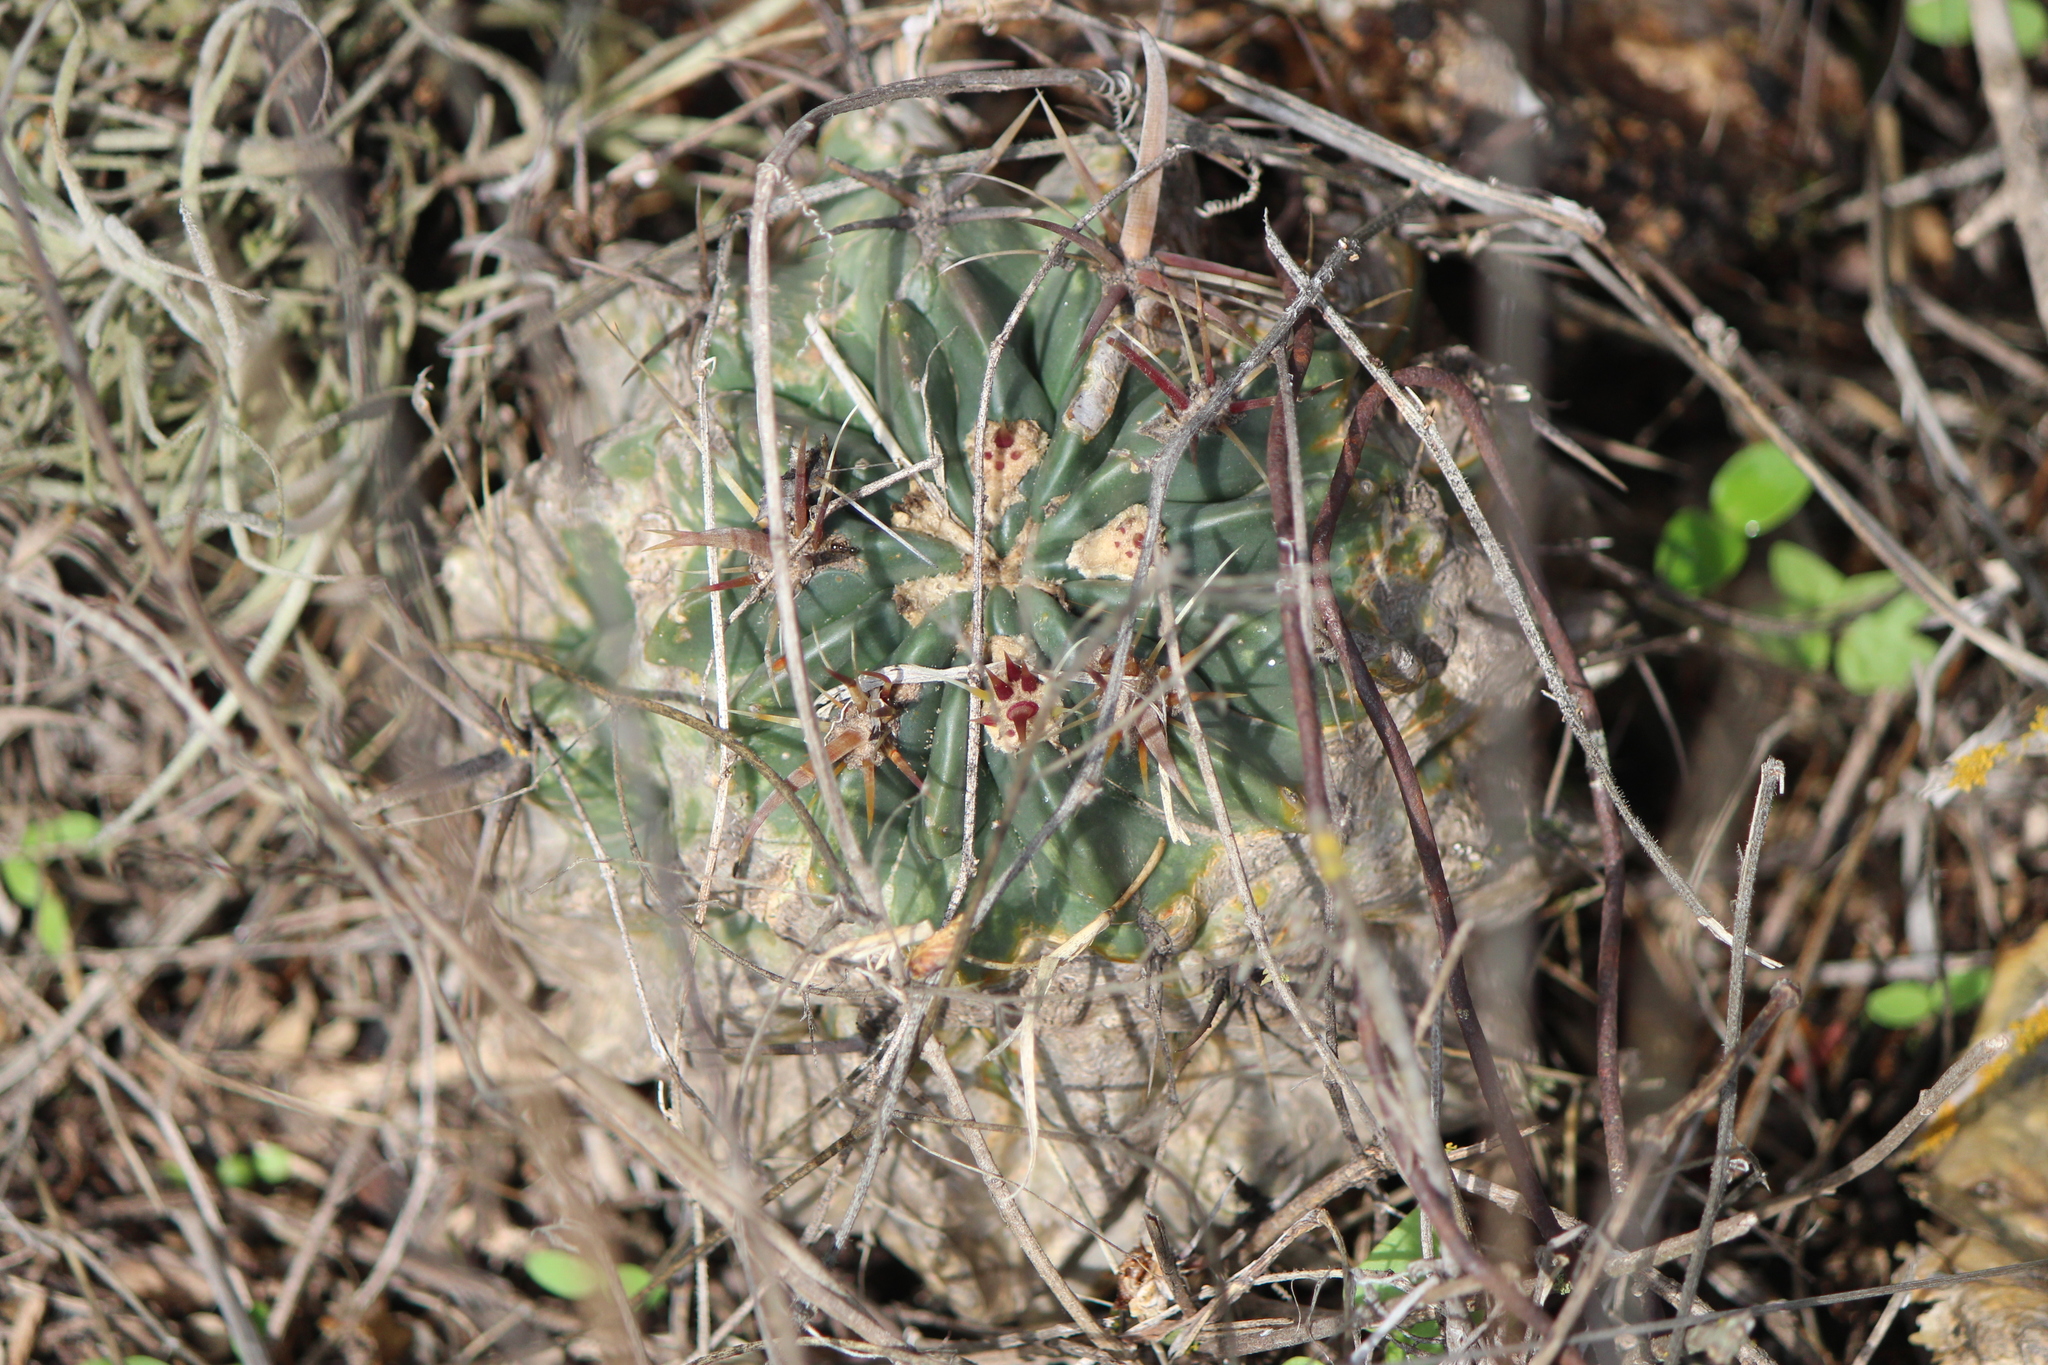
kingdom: Plantae
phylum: Tracheophyta
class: Magnoliopsida
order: Caryophyllales
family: Cactaceae
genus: Ferocactus
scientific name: Ferocactus latispinus
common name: Devil's-tongue cactus
